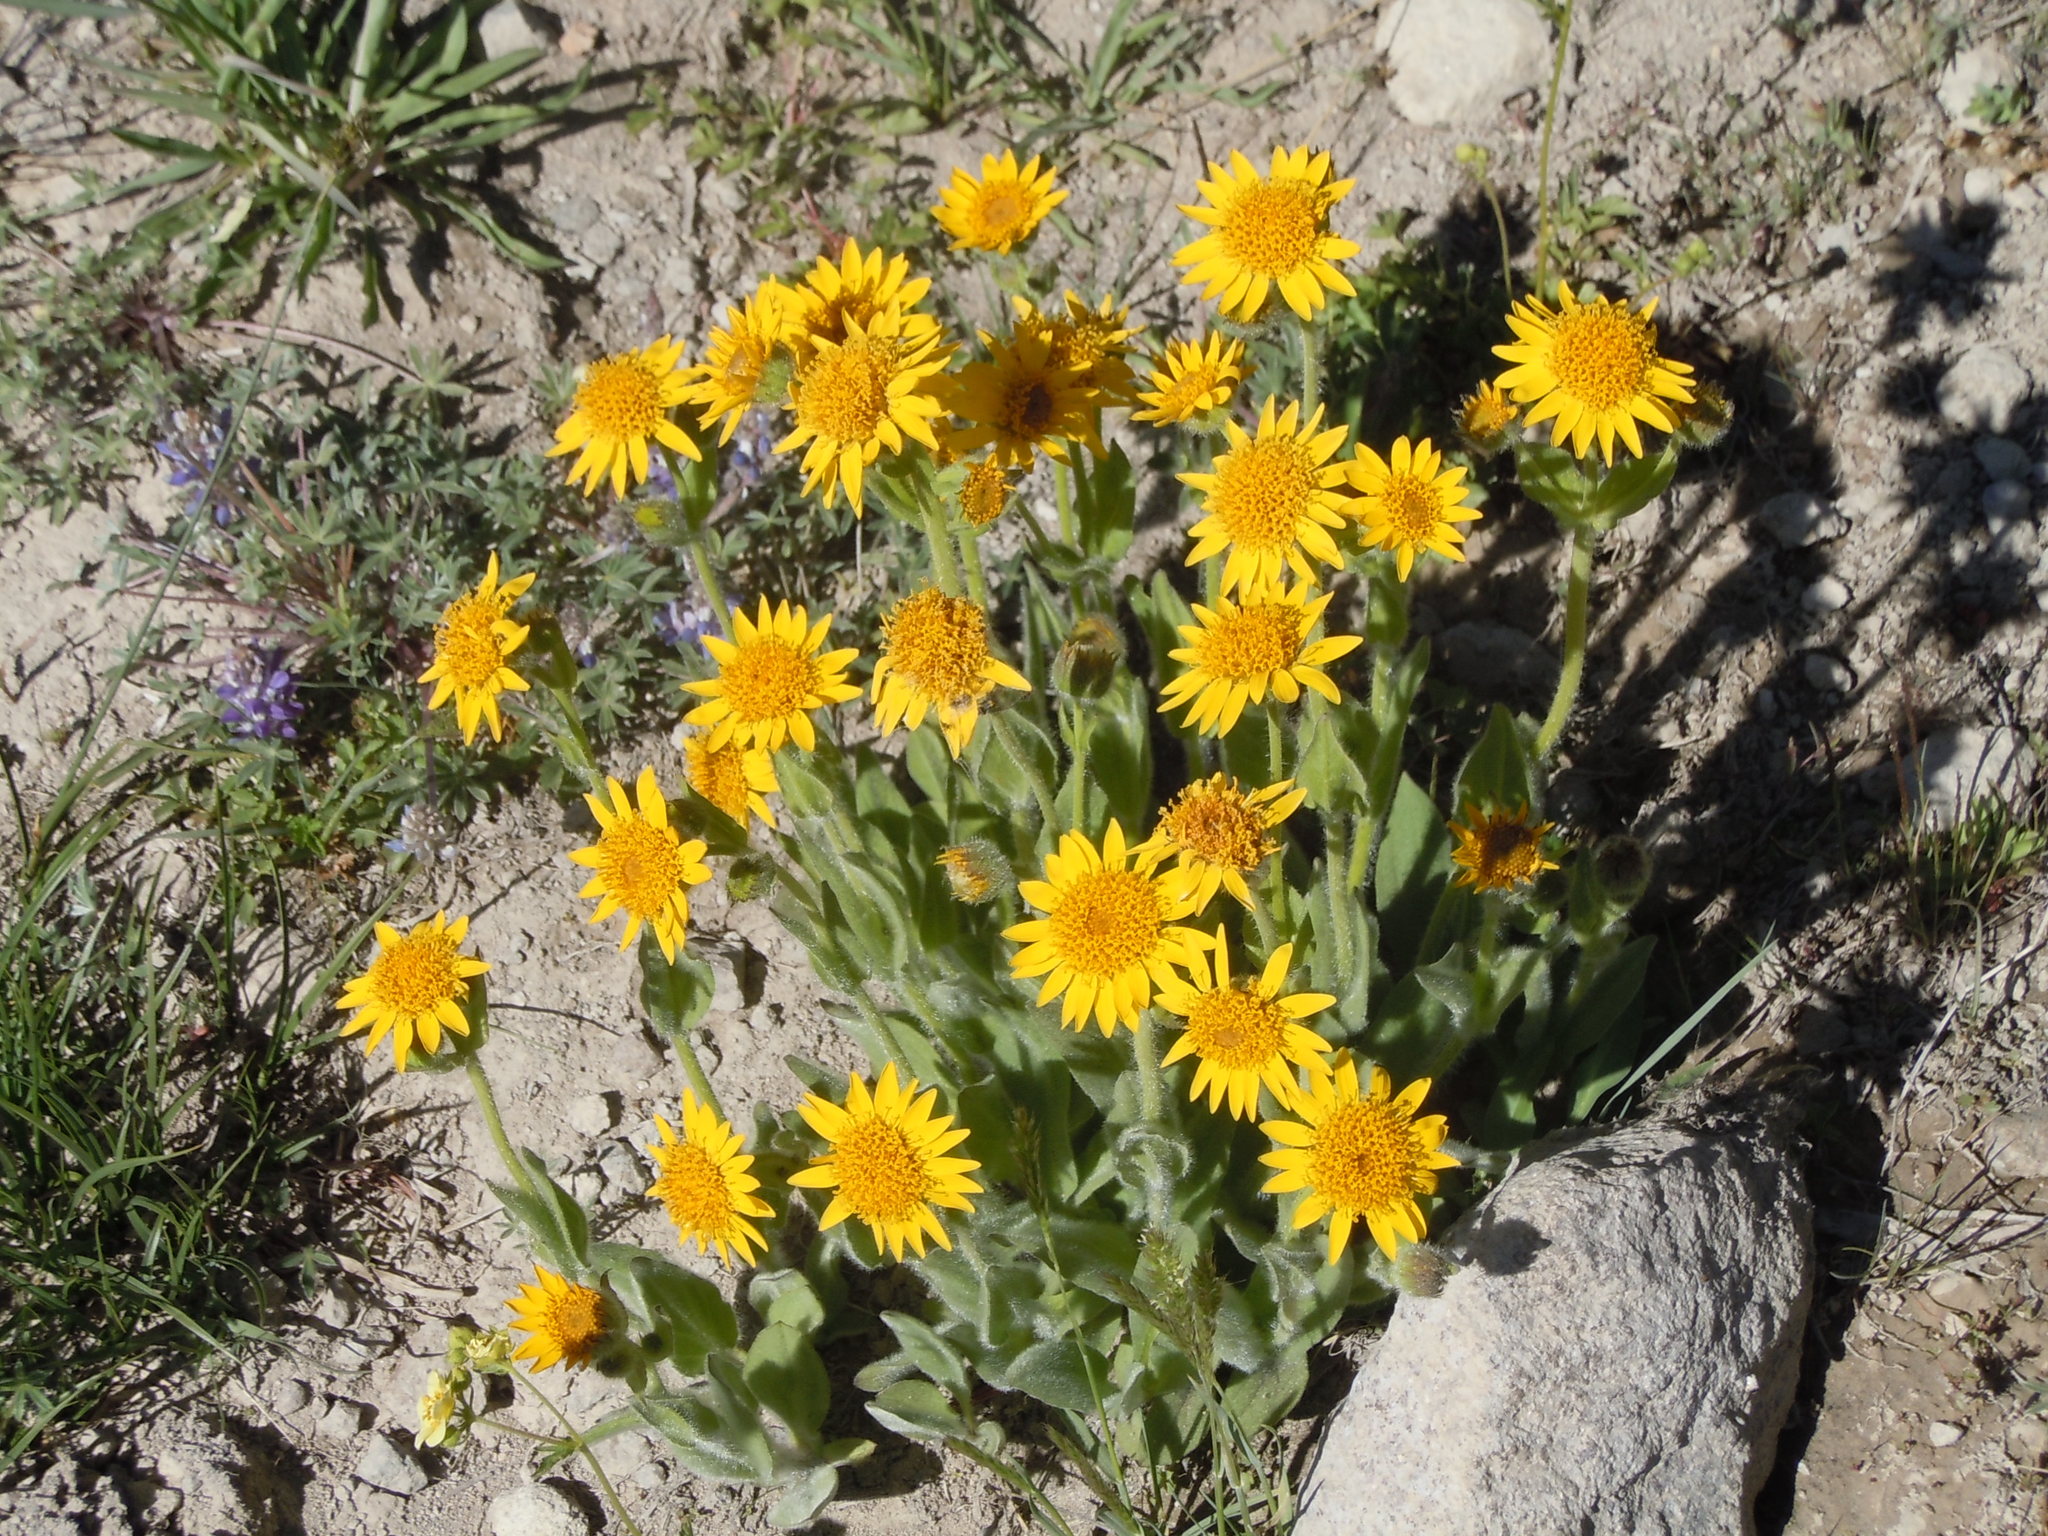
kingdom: Plantae
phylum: Tracheophyta
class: Magnoliopsida
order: Asterales
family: Asteraceae
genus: Arnica
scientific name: Arnica mollis
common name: Hairy arnica
